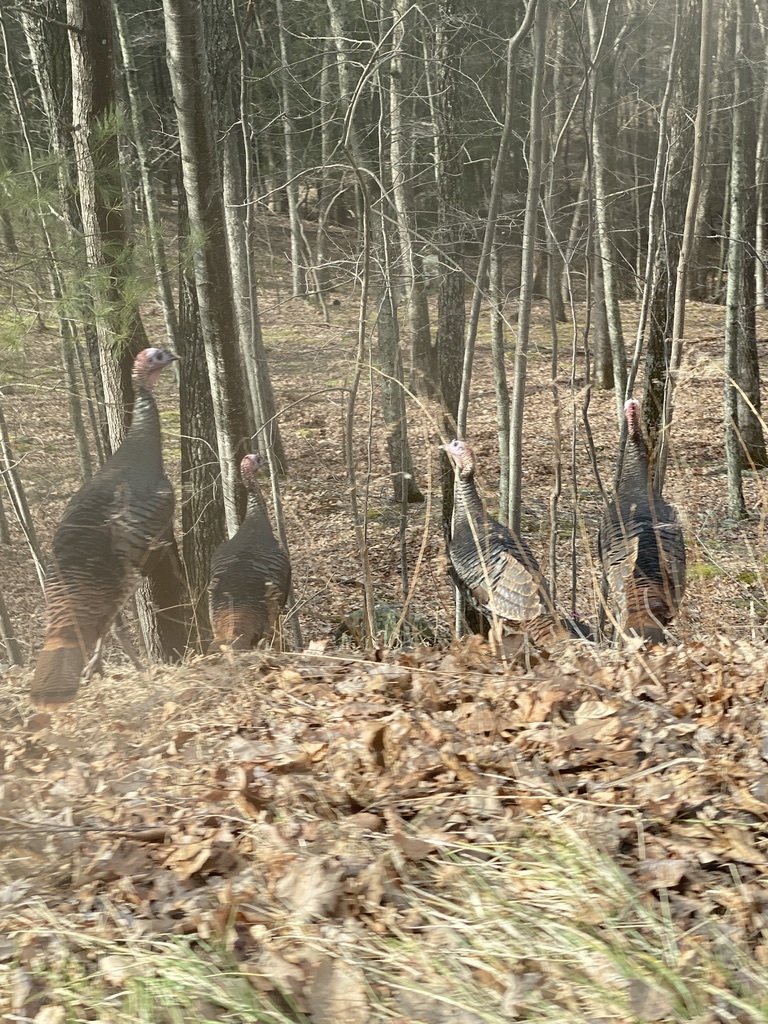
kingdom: Animalia
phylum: Chordata
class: Aves
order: Galliformes
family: Phasianidae
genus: Meleagris
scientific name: Meleagris gallopavo
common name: Wild turkey
